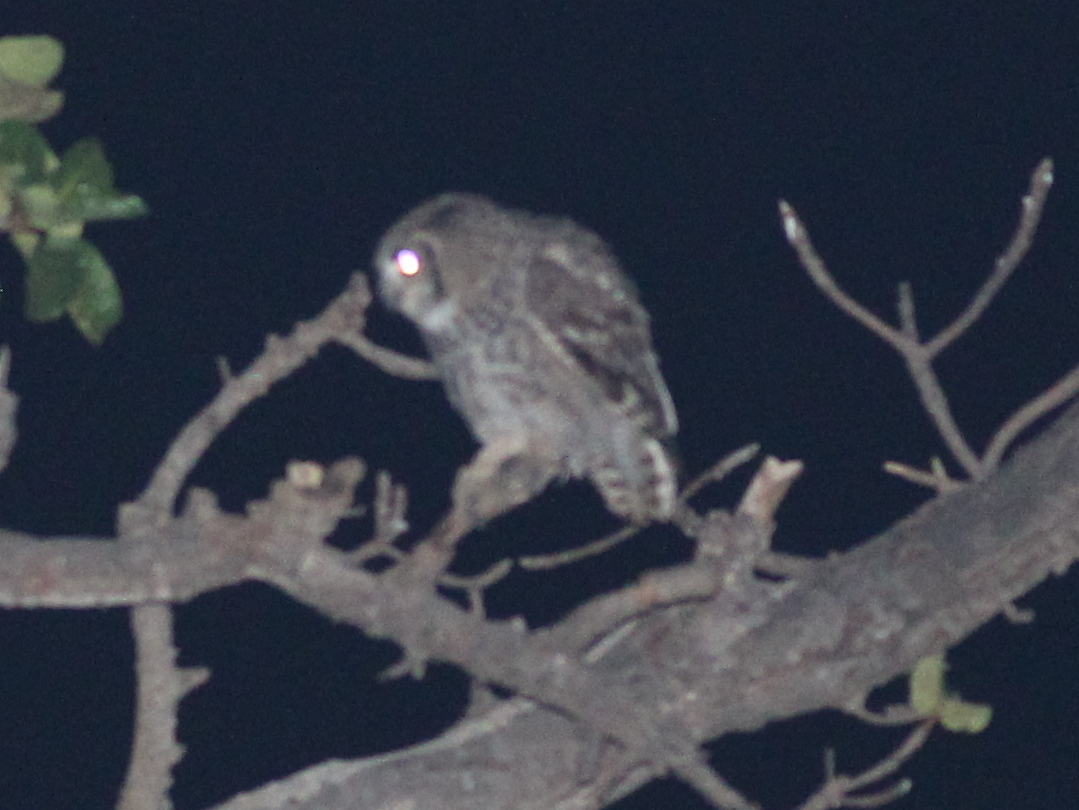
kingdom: Animalia
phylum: Chordata
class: Aves
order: Strigiformes
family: Strigidae
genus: Bubo
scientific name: Bubo africanus
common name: Spotted eagle-owl
